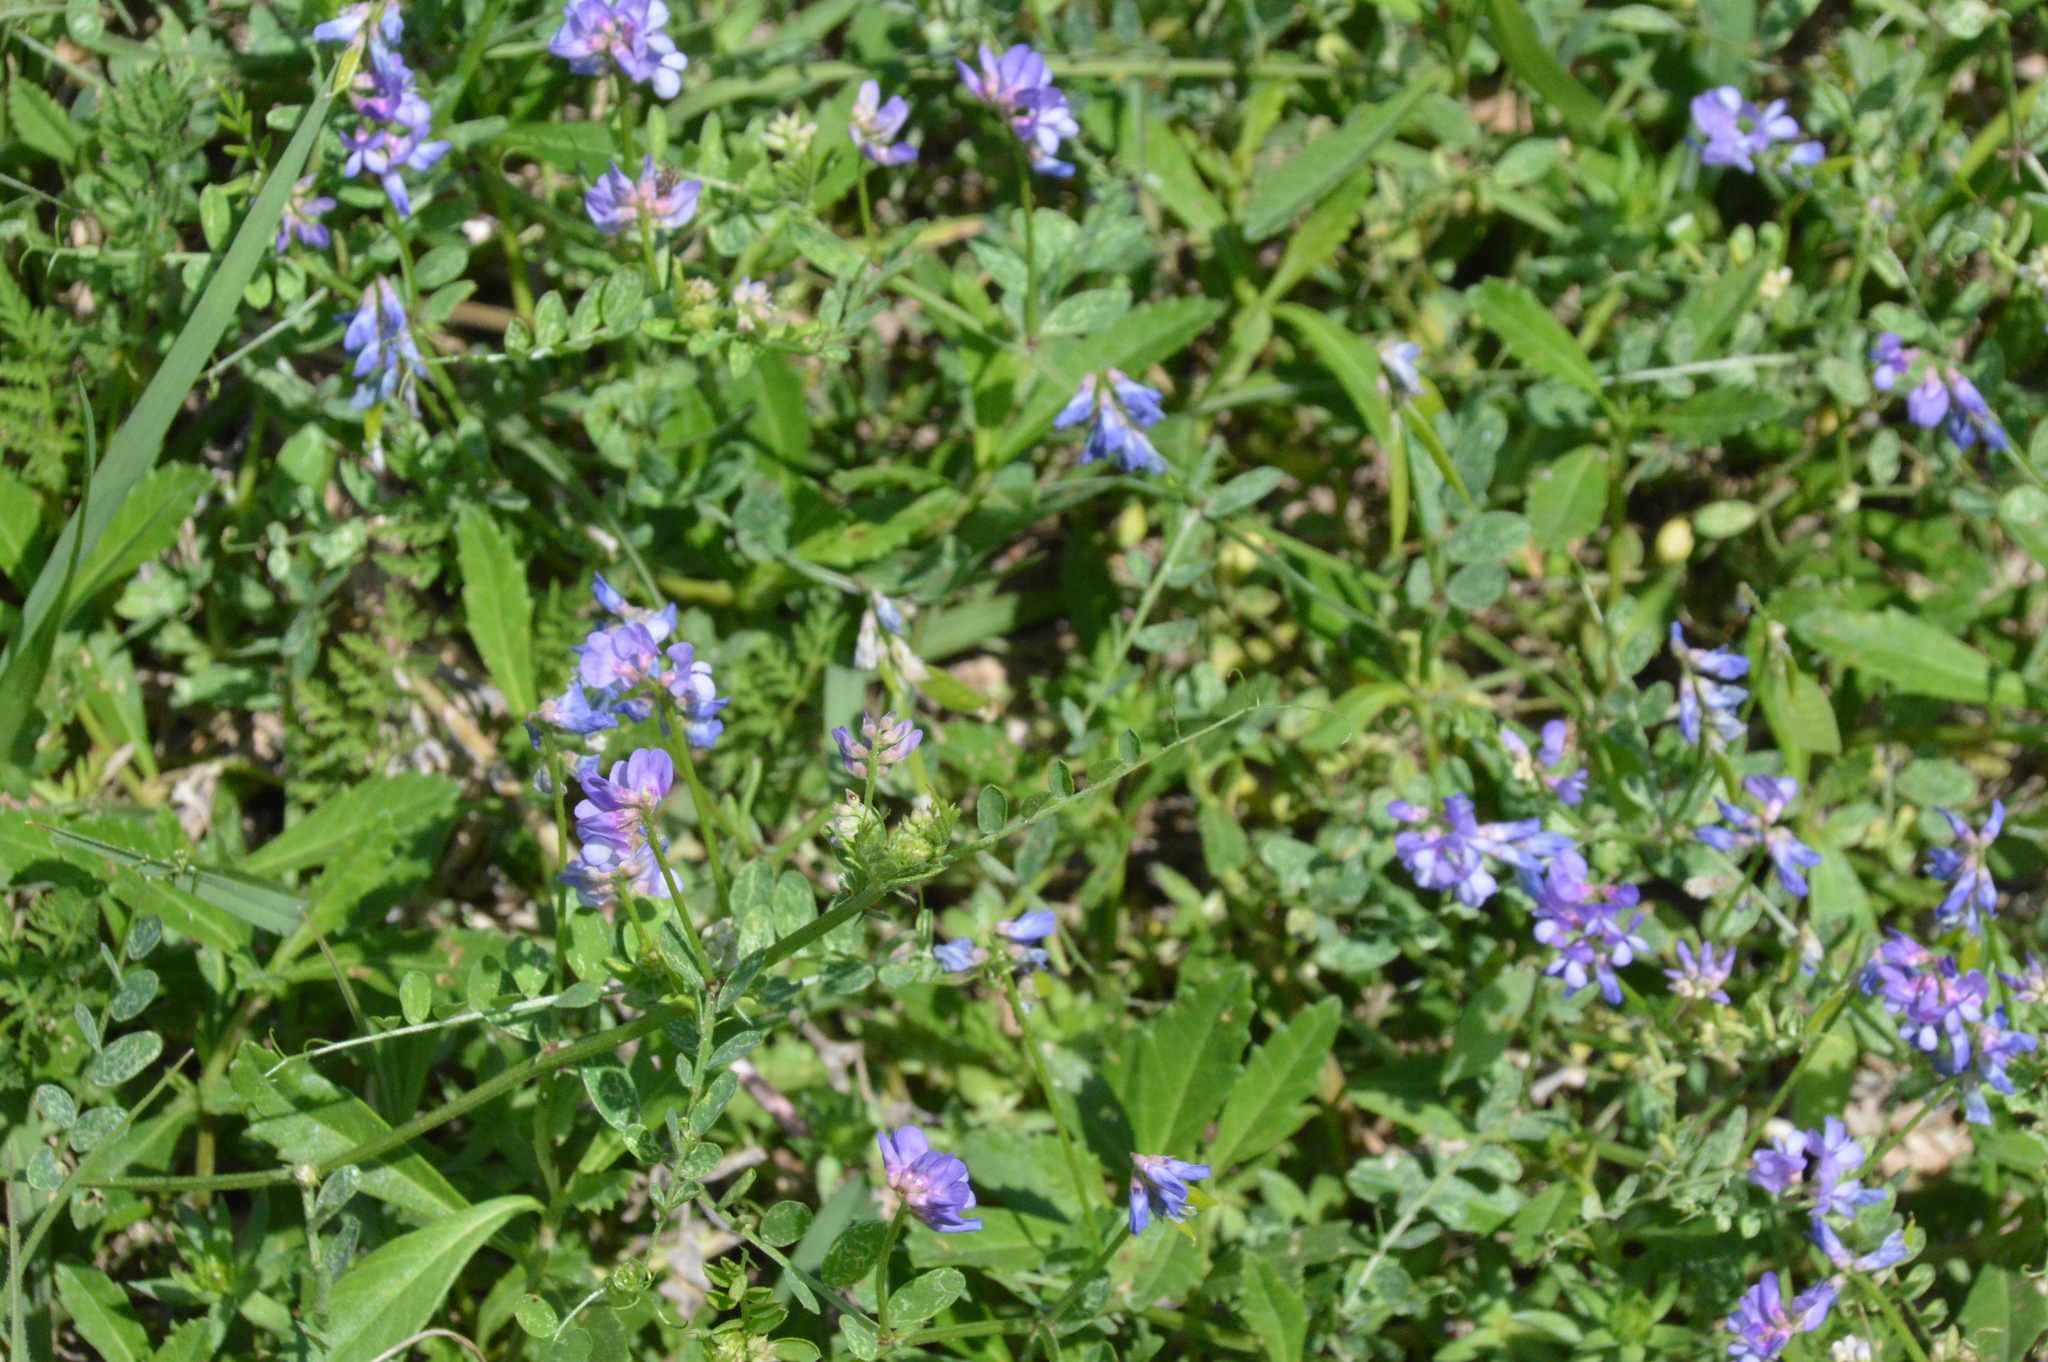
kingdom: Plantae
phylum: Tracheophyta
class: Magnoliopsida
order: Fabales
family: Fabaceae
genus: Vicia
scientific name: Vicia ludoviciana
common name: Louisiana vetch
